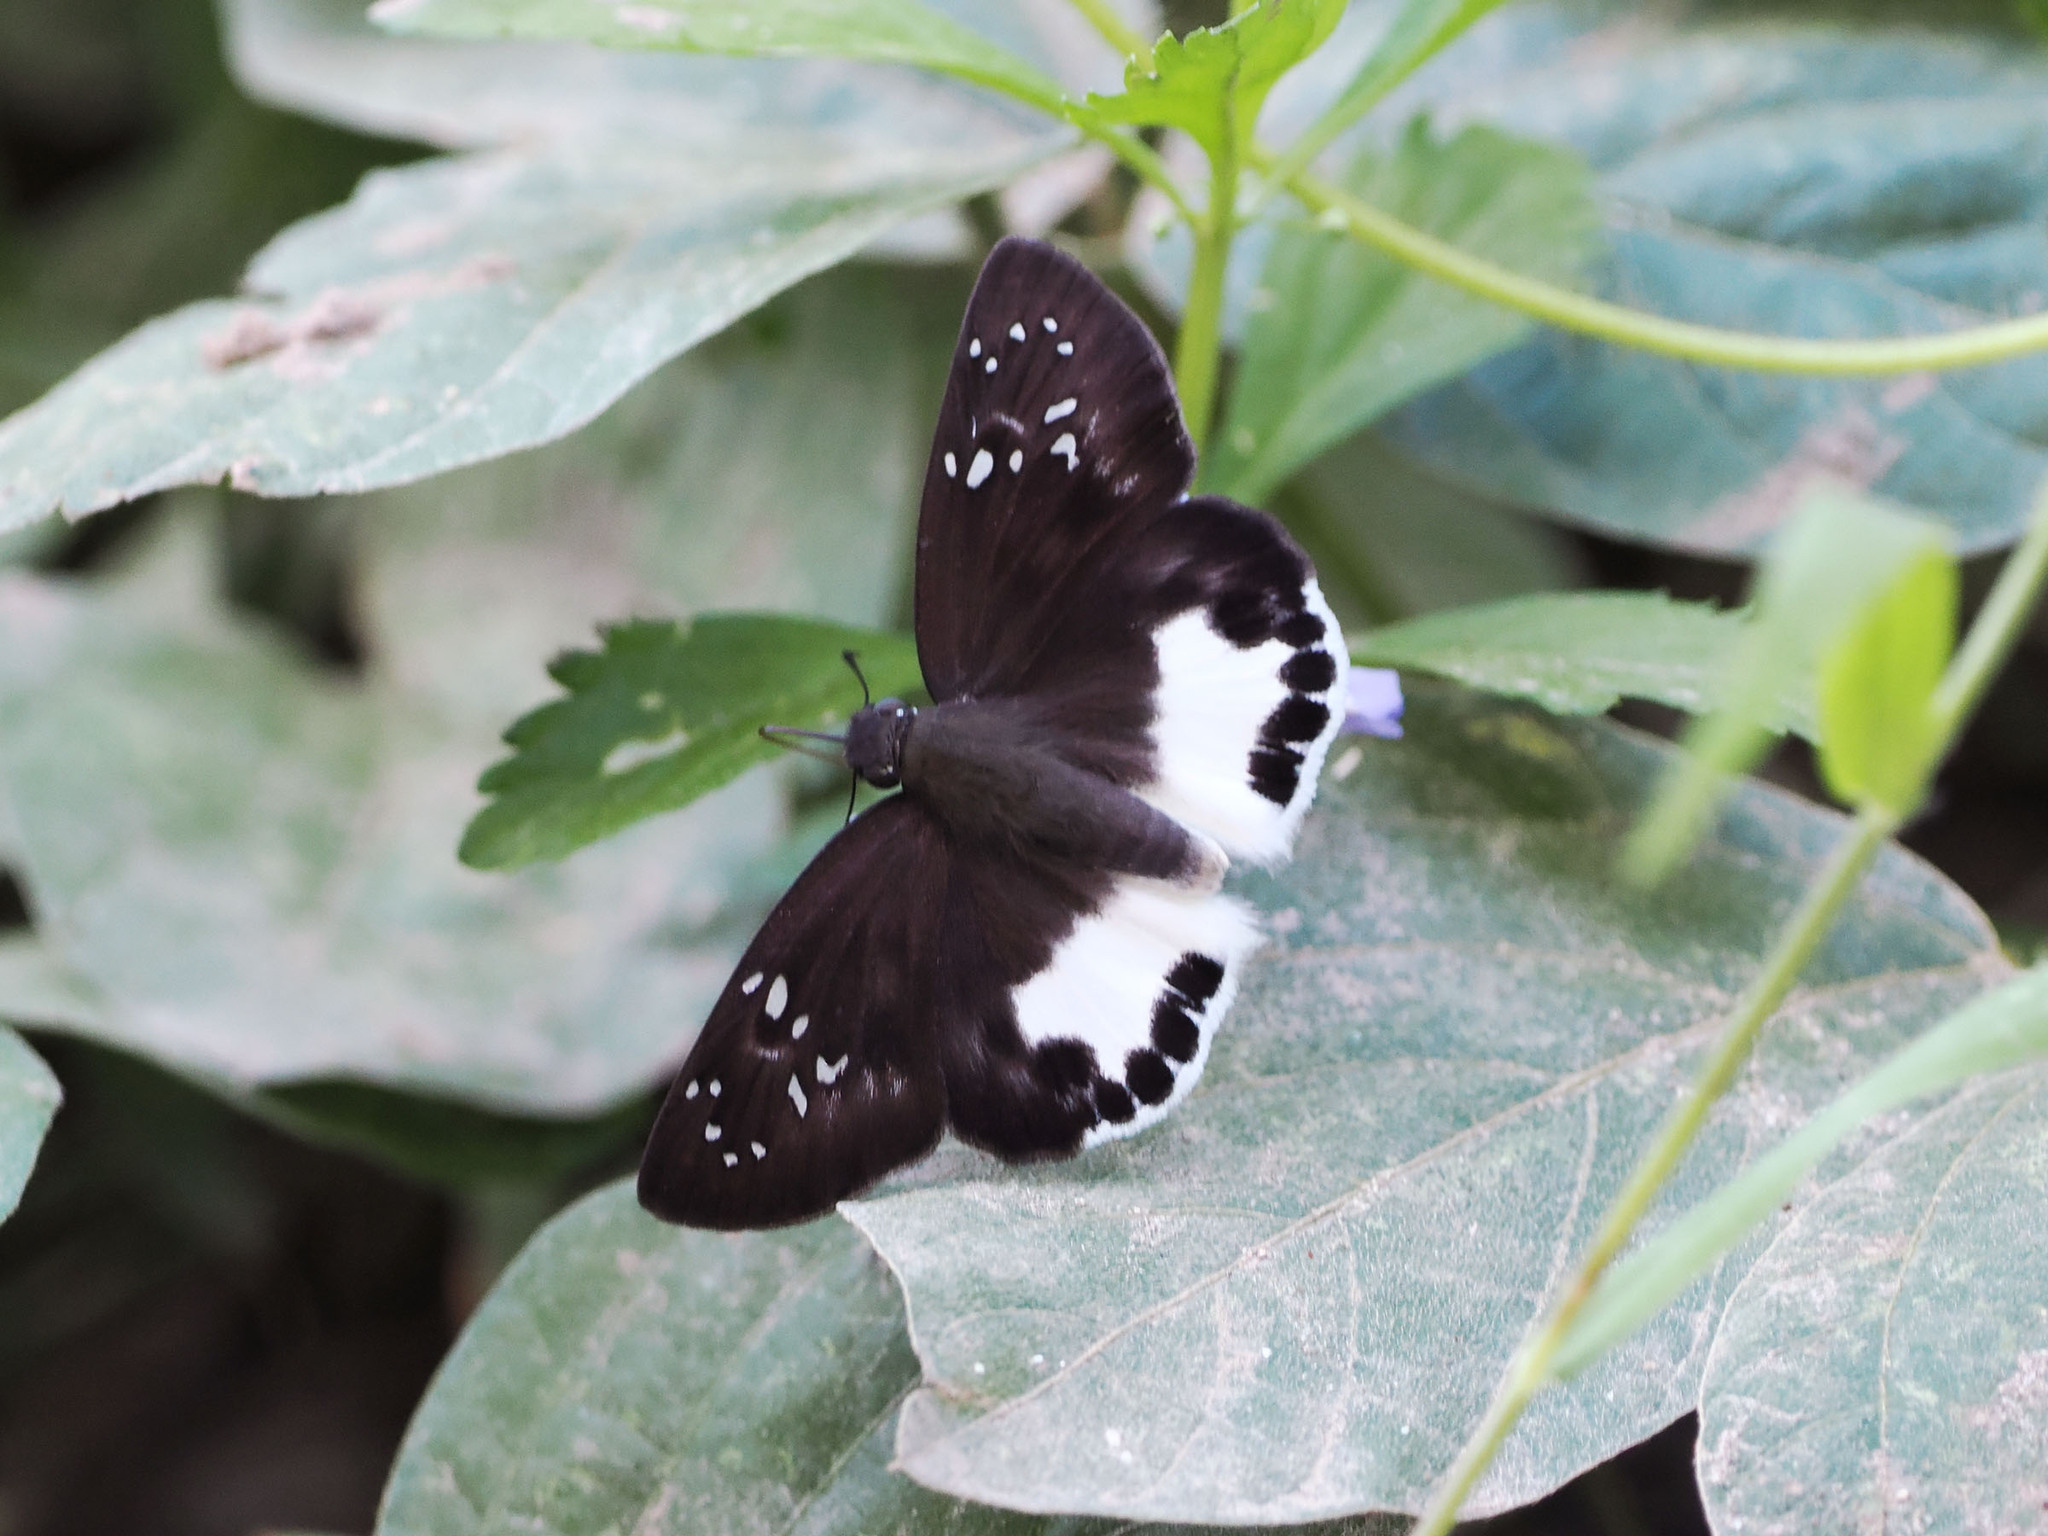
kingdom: Animalia
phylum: Arthropoda
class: Insecta
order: Lepidoptera
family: Hesperiidae
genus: Tagiades
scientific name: Tagiades trebellius
